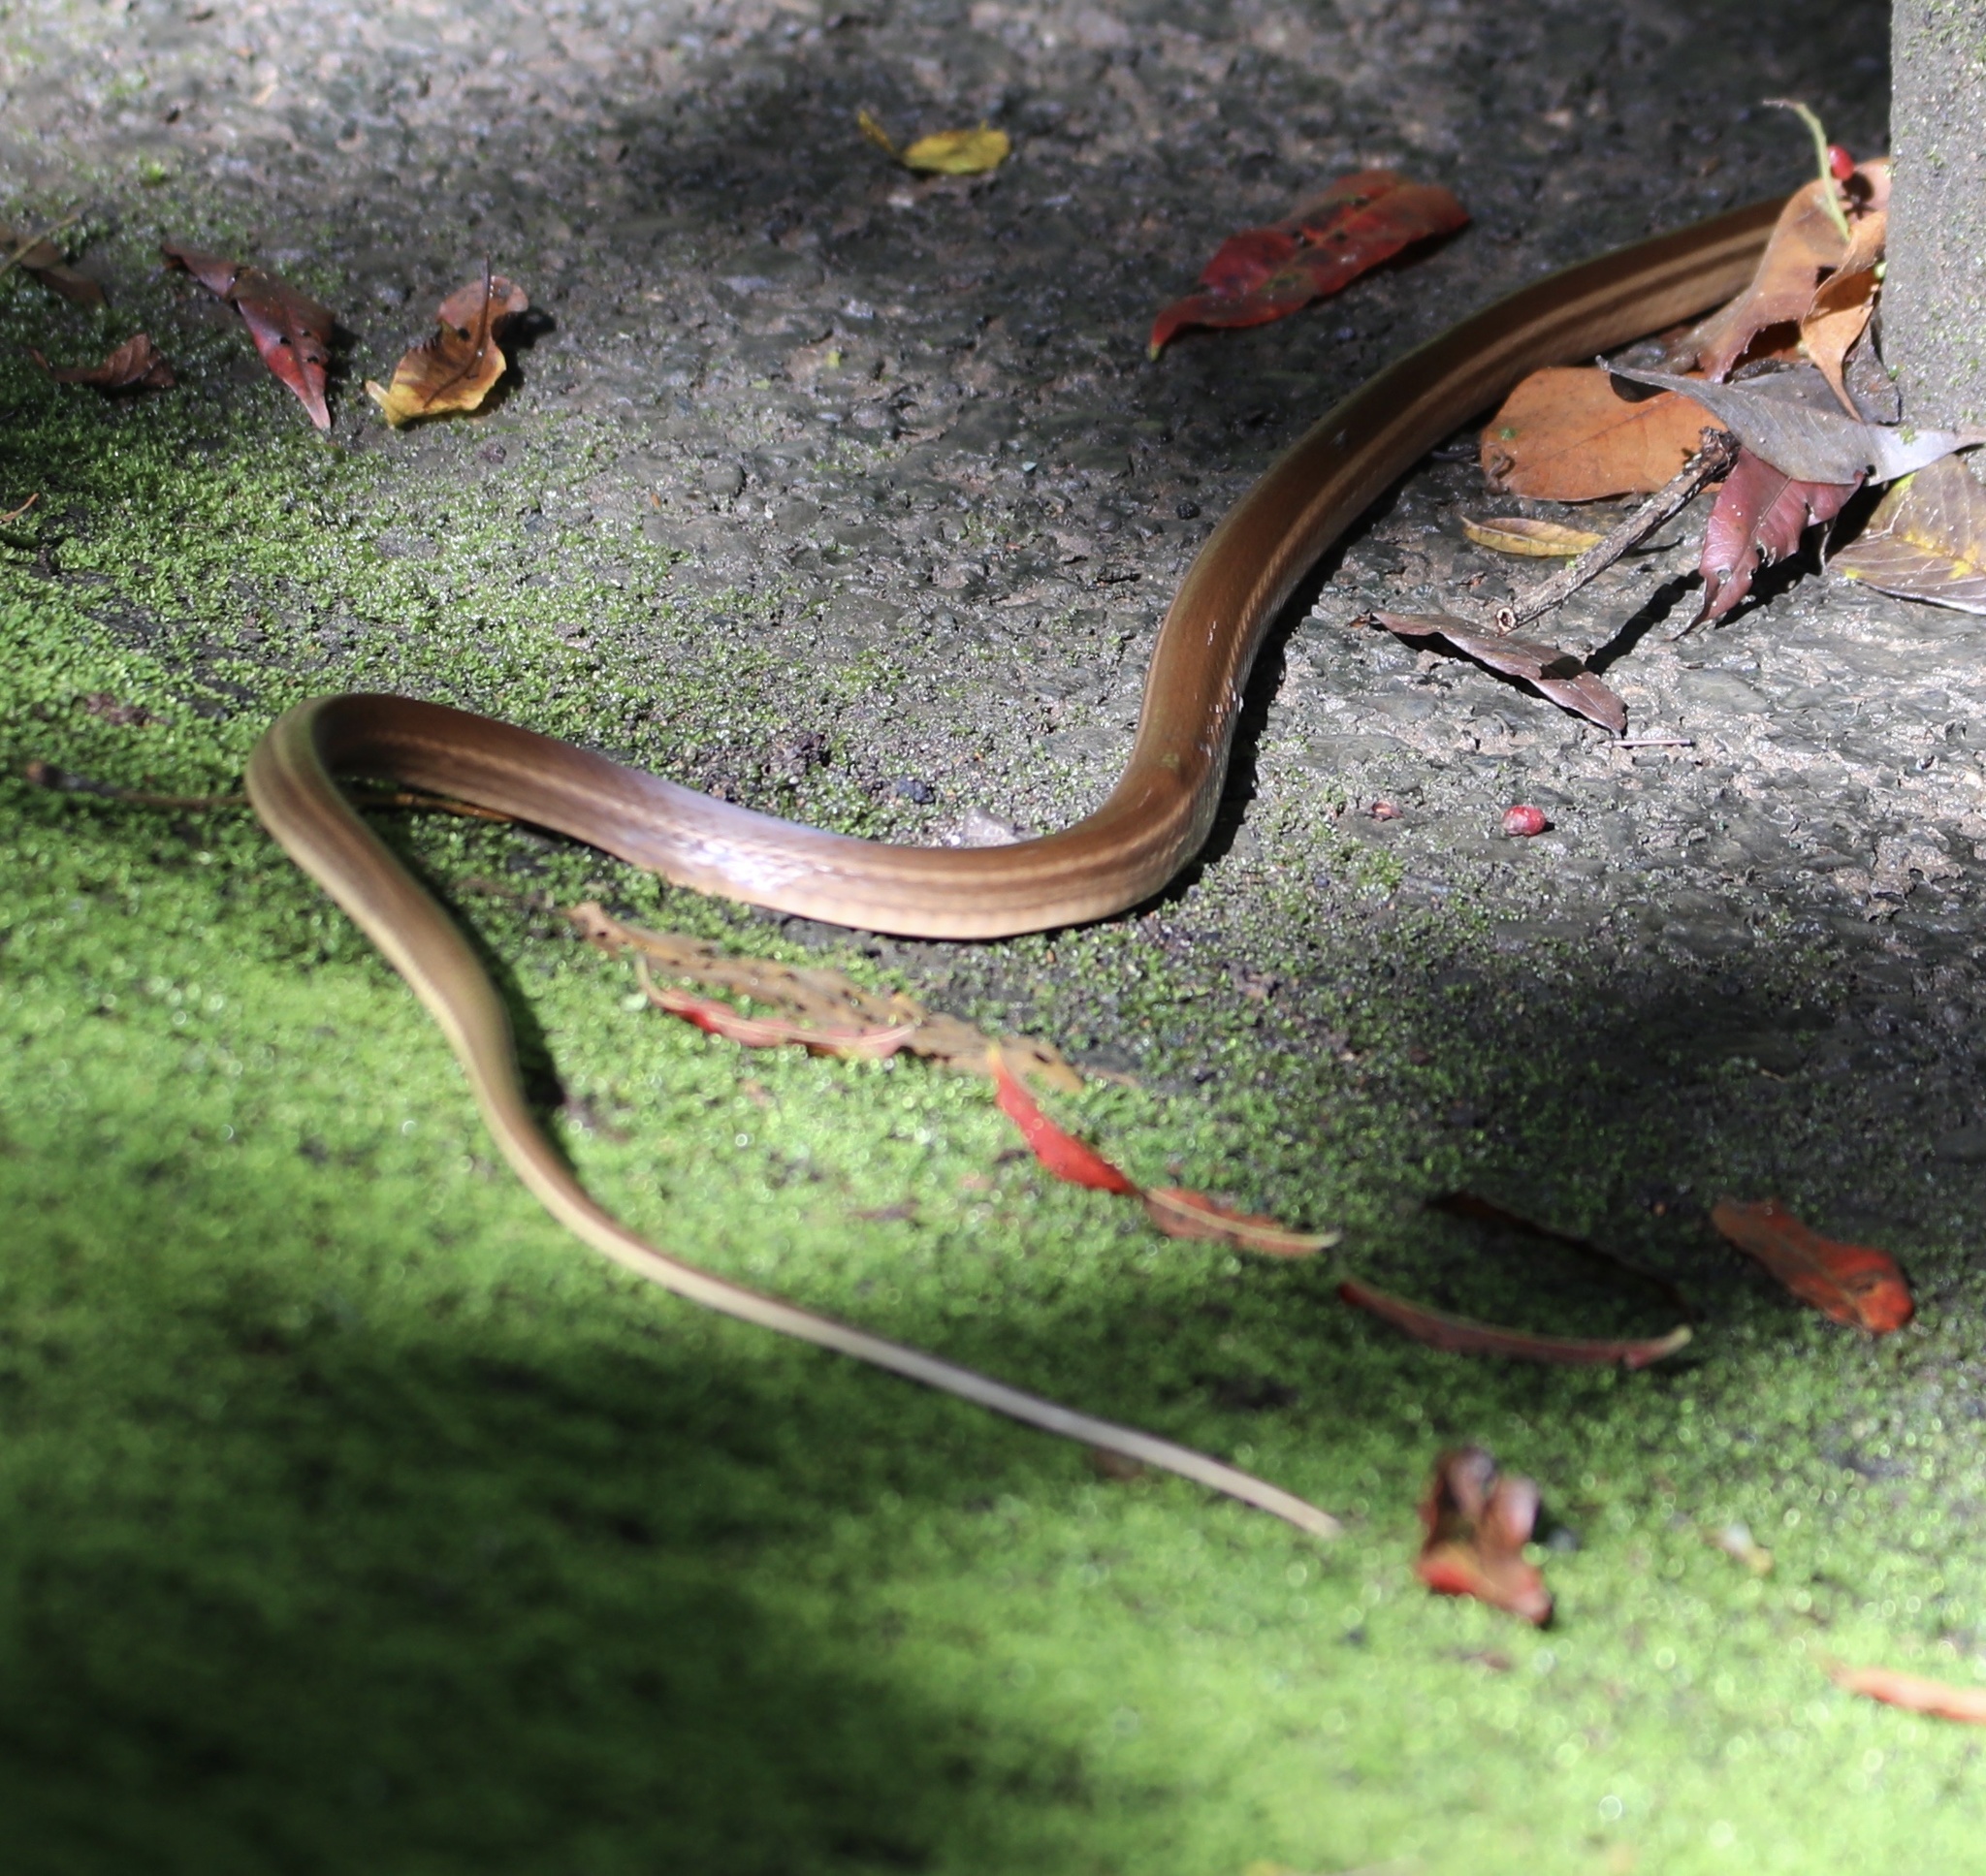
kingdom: Animalia
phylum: Chordata
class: Squamata
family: Colubridae
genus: Mastigodryas
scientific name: Mastigodryas alternatus
